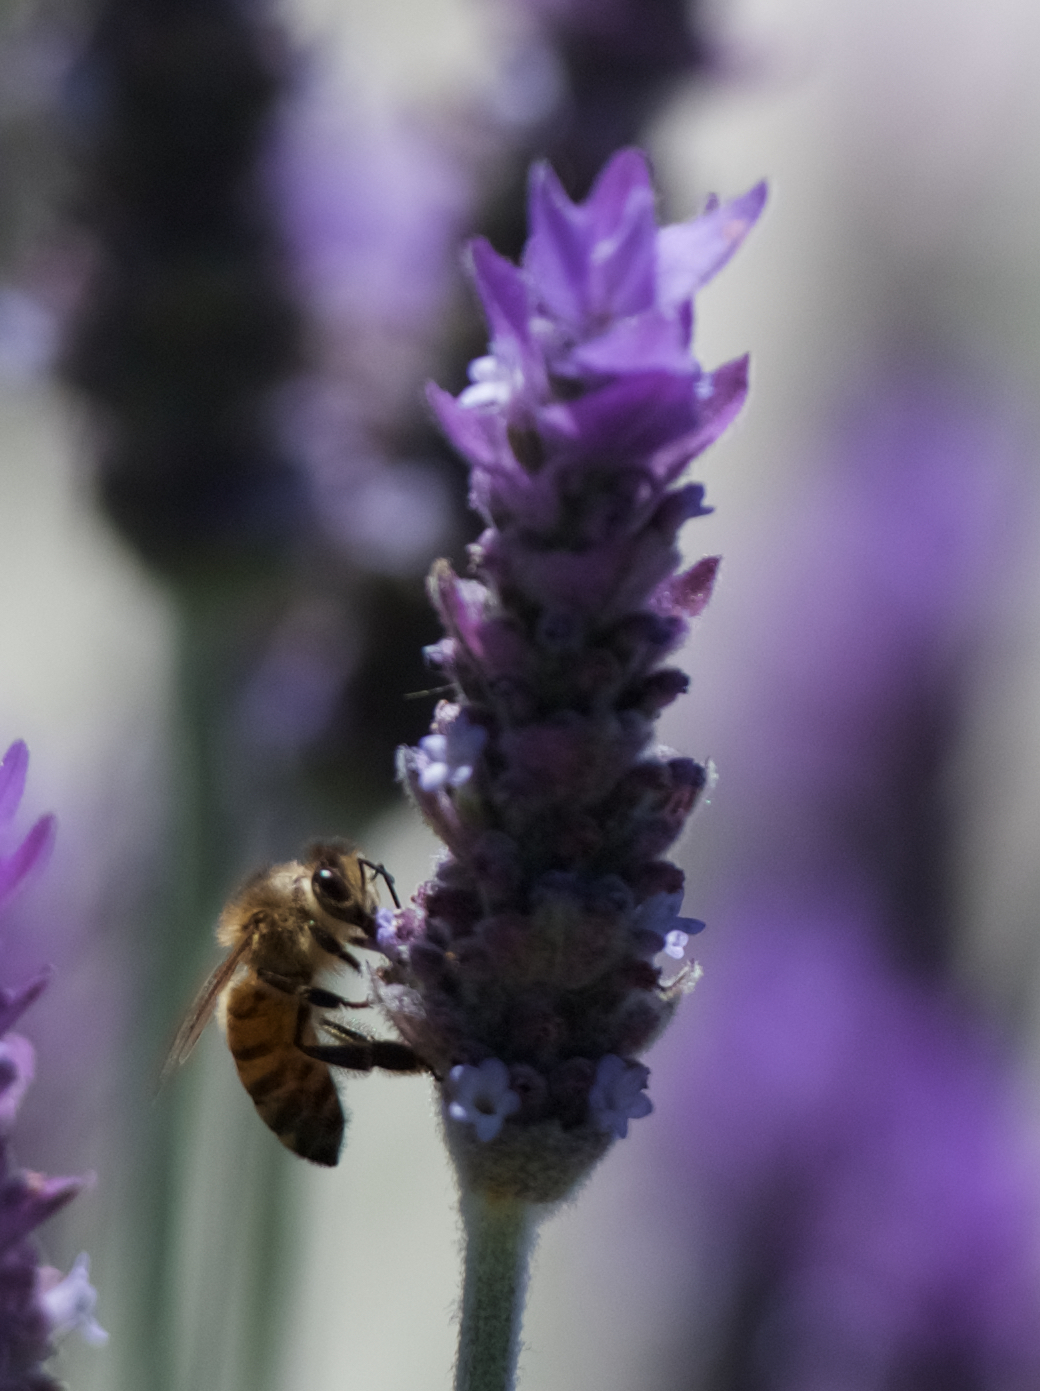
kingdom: Animalia
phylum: Arthropoda
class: Insecta
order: Hymenoptera
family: Apidae
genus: Apis
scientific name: Apis mellifera
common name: Honey bee
